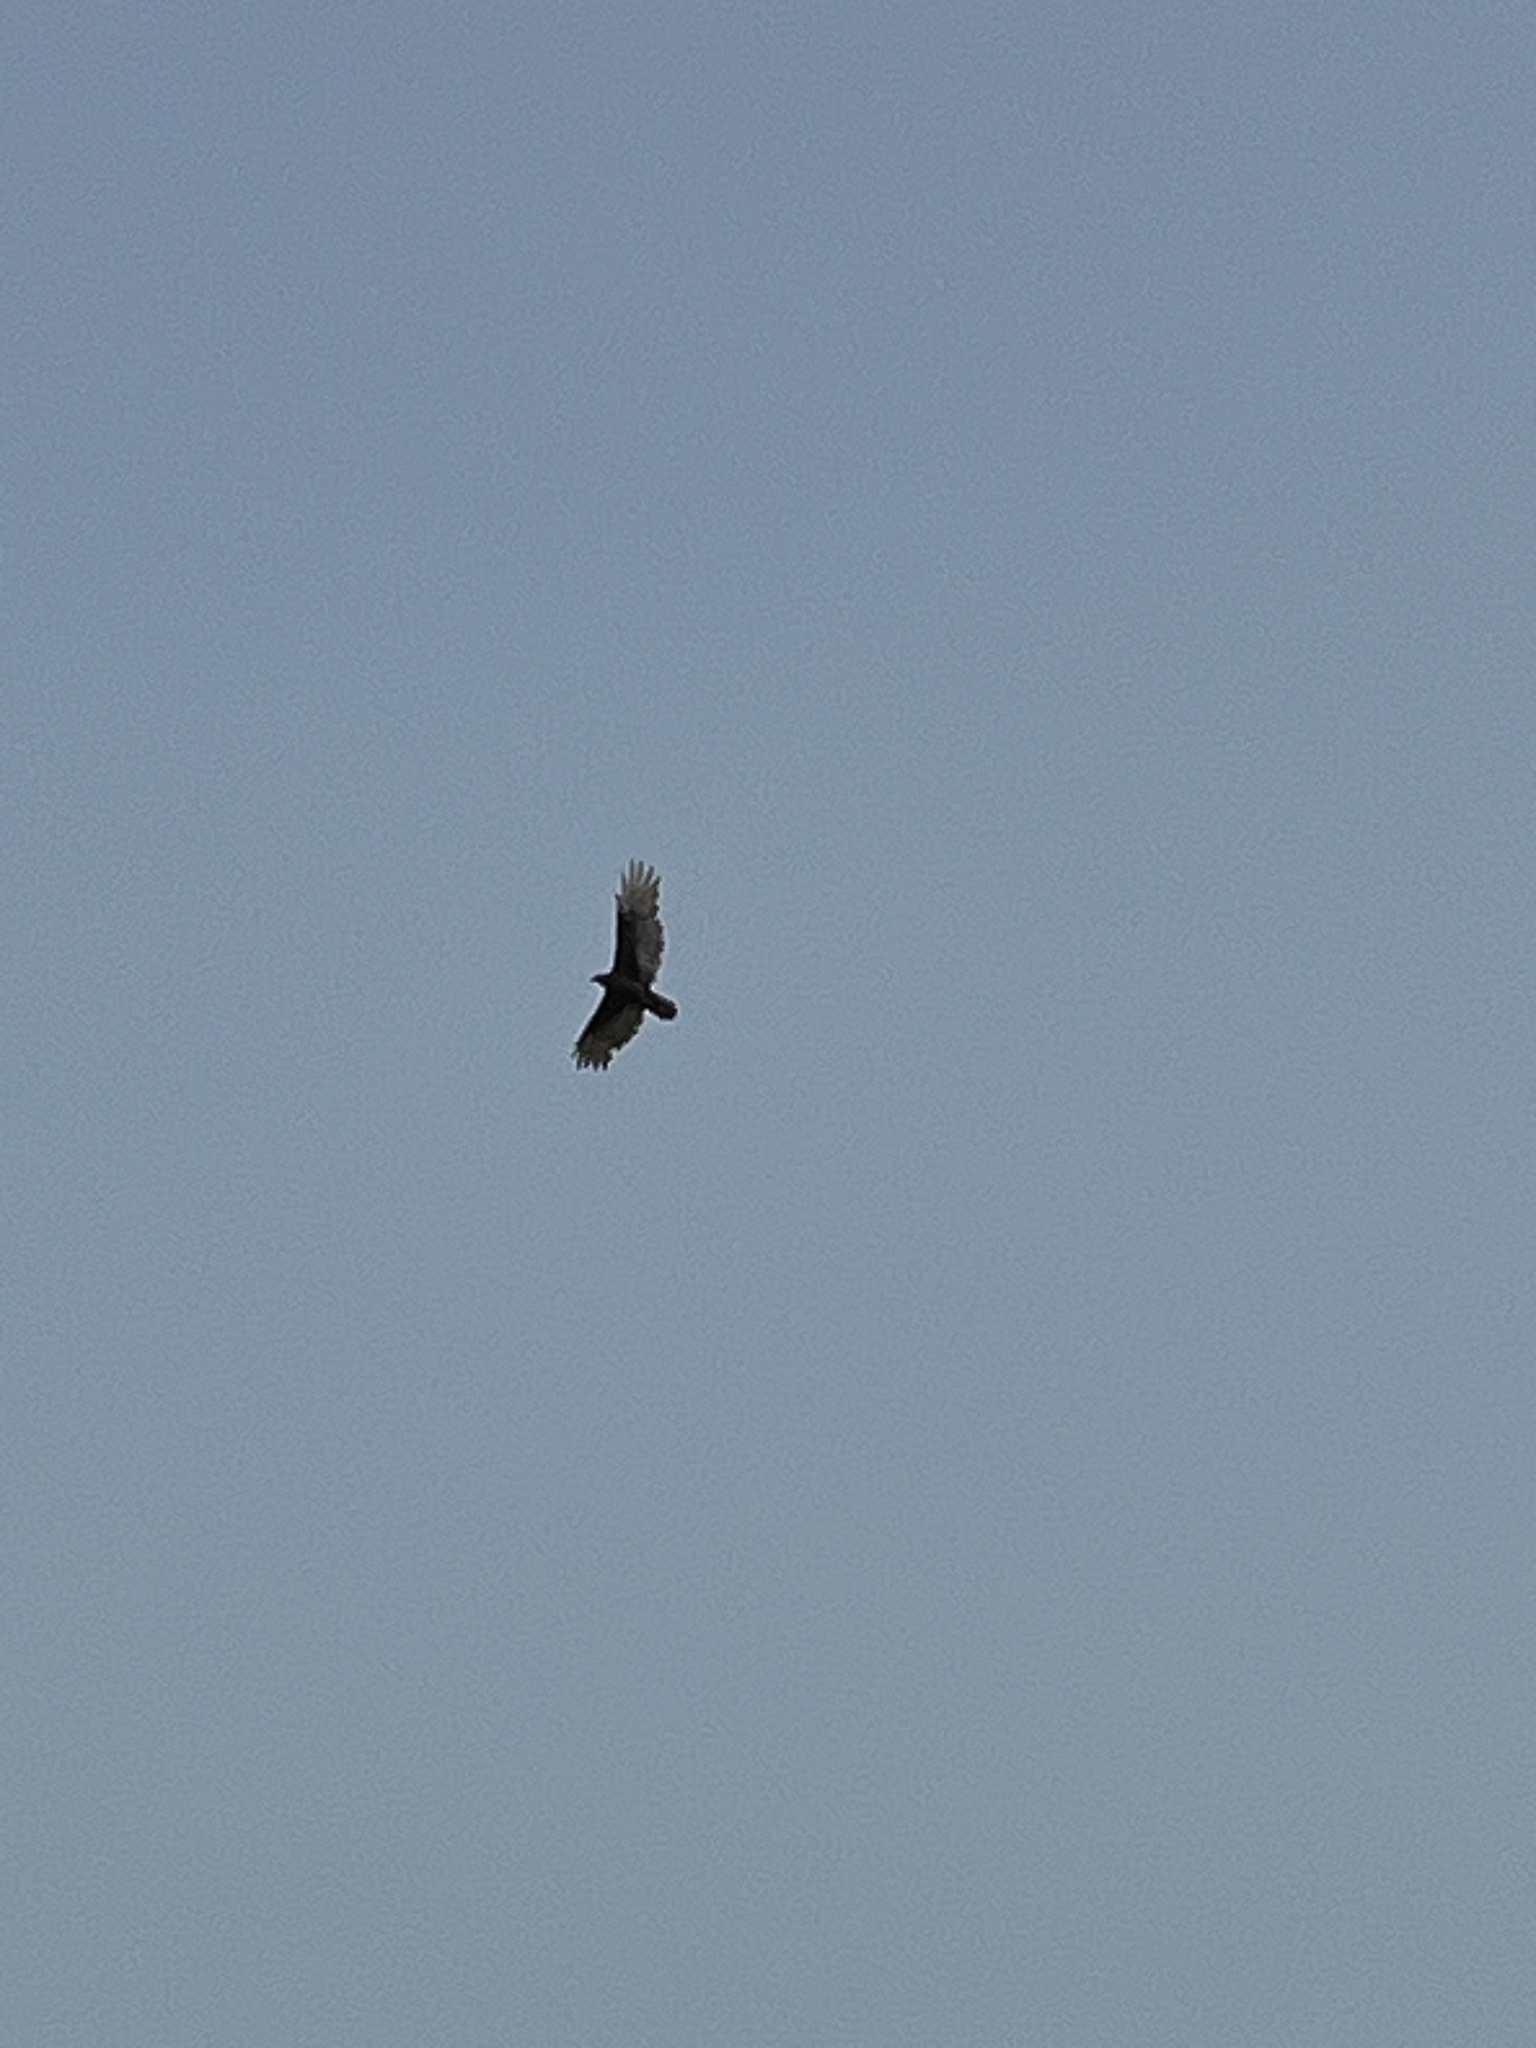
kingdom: Animalia
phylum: Chordata
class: Aves
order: Accipitriformes
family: Cathartidae
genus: Cathartes
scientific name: Cathartes aura
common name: Turkey vulture
